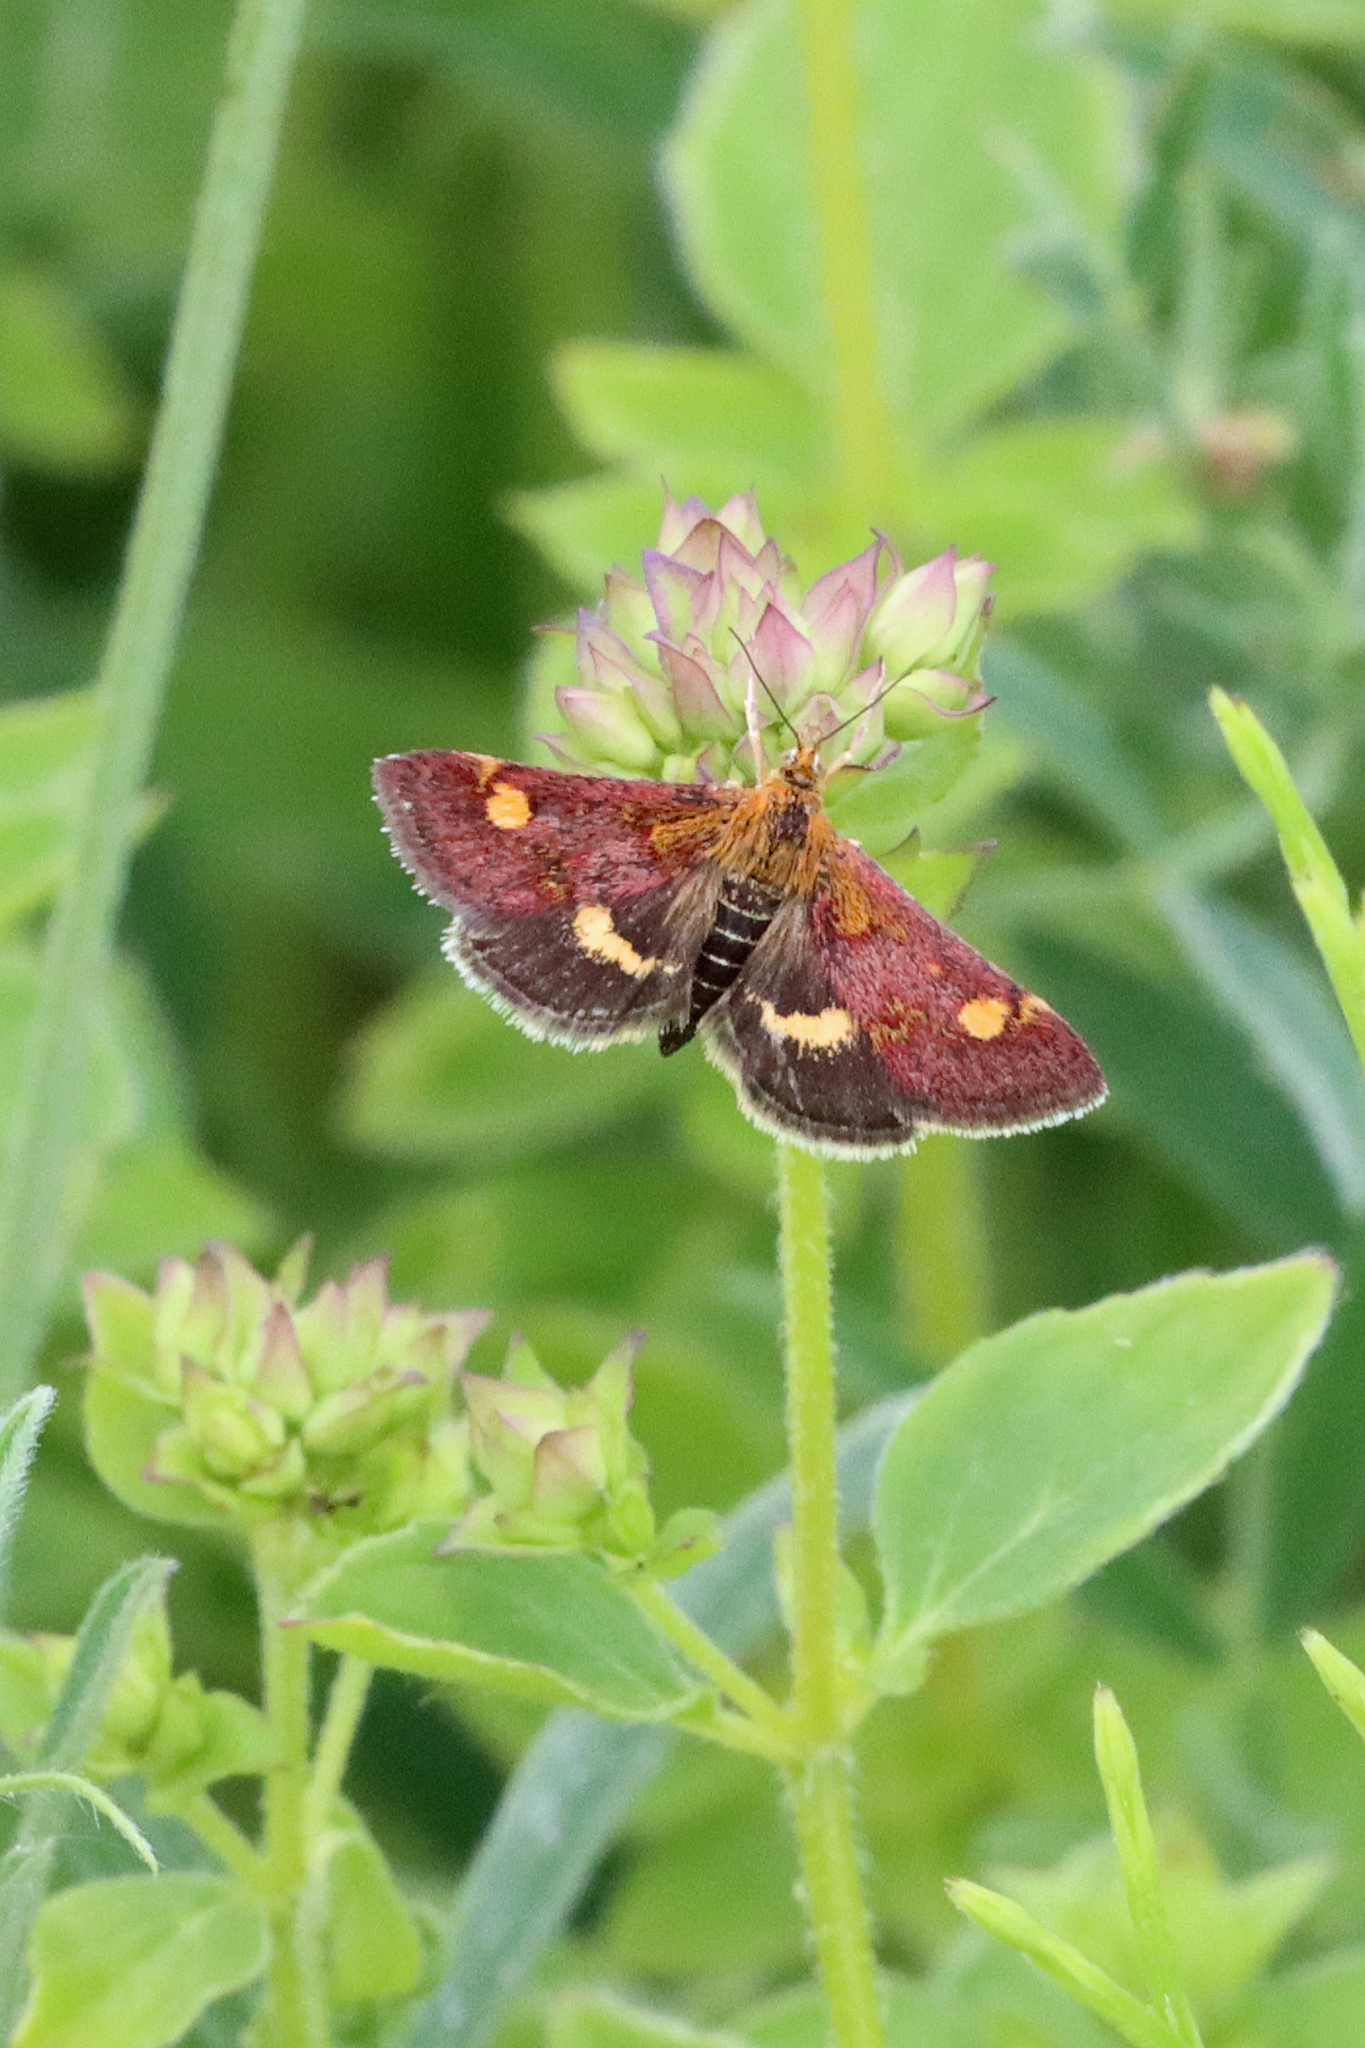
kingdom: Animalia
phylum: Arthropoda
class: Insecta
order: Lepidoptera
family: Crambidae
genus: Pyrausta
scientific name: Pyrausta aurata
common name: Small purple & gold
